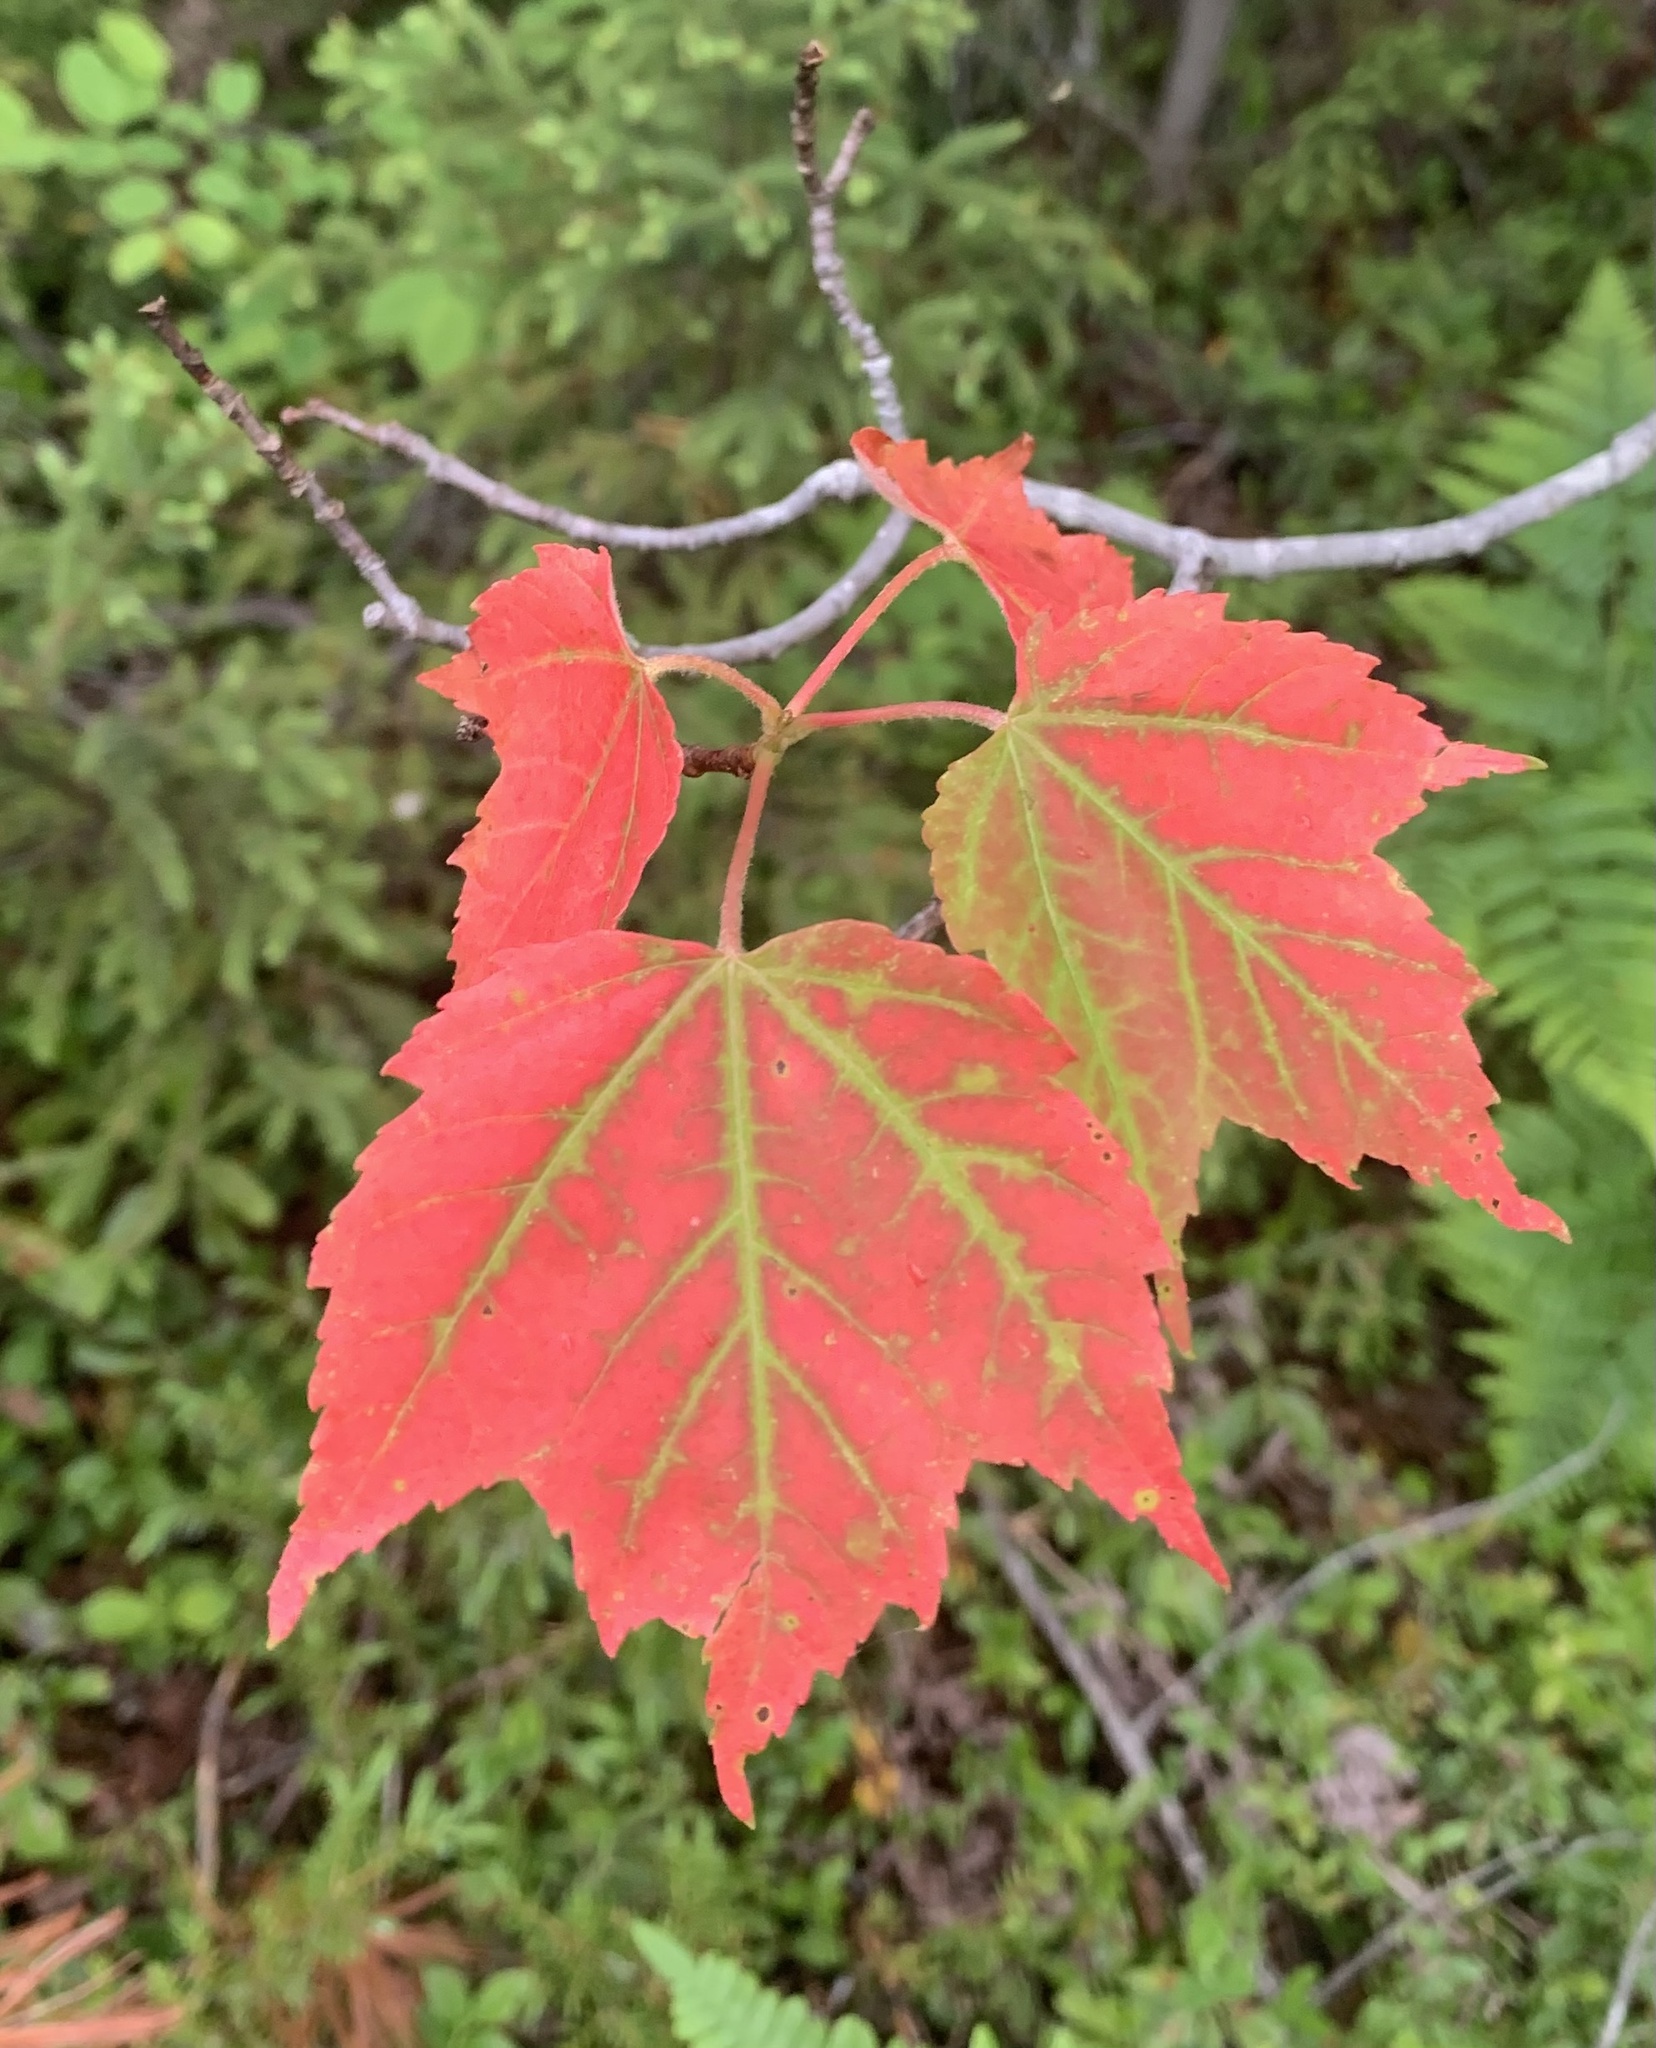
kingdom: Plantae
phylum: Tracheophyta
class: Magnoliopsida
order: Sapindales
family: Sapindaceae
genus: Acer
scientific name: Acer rubrum
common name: Red maple
